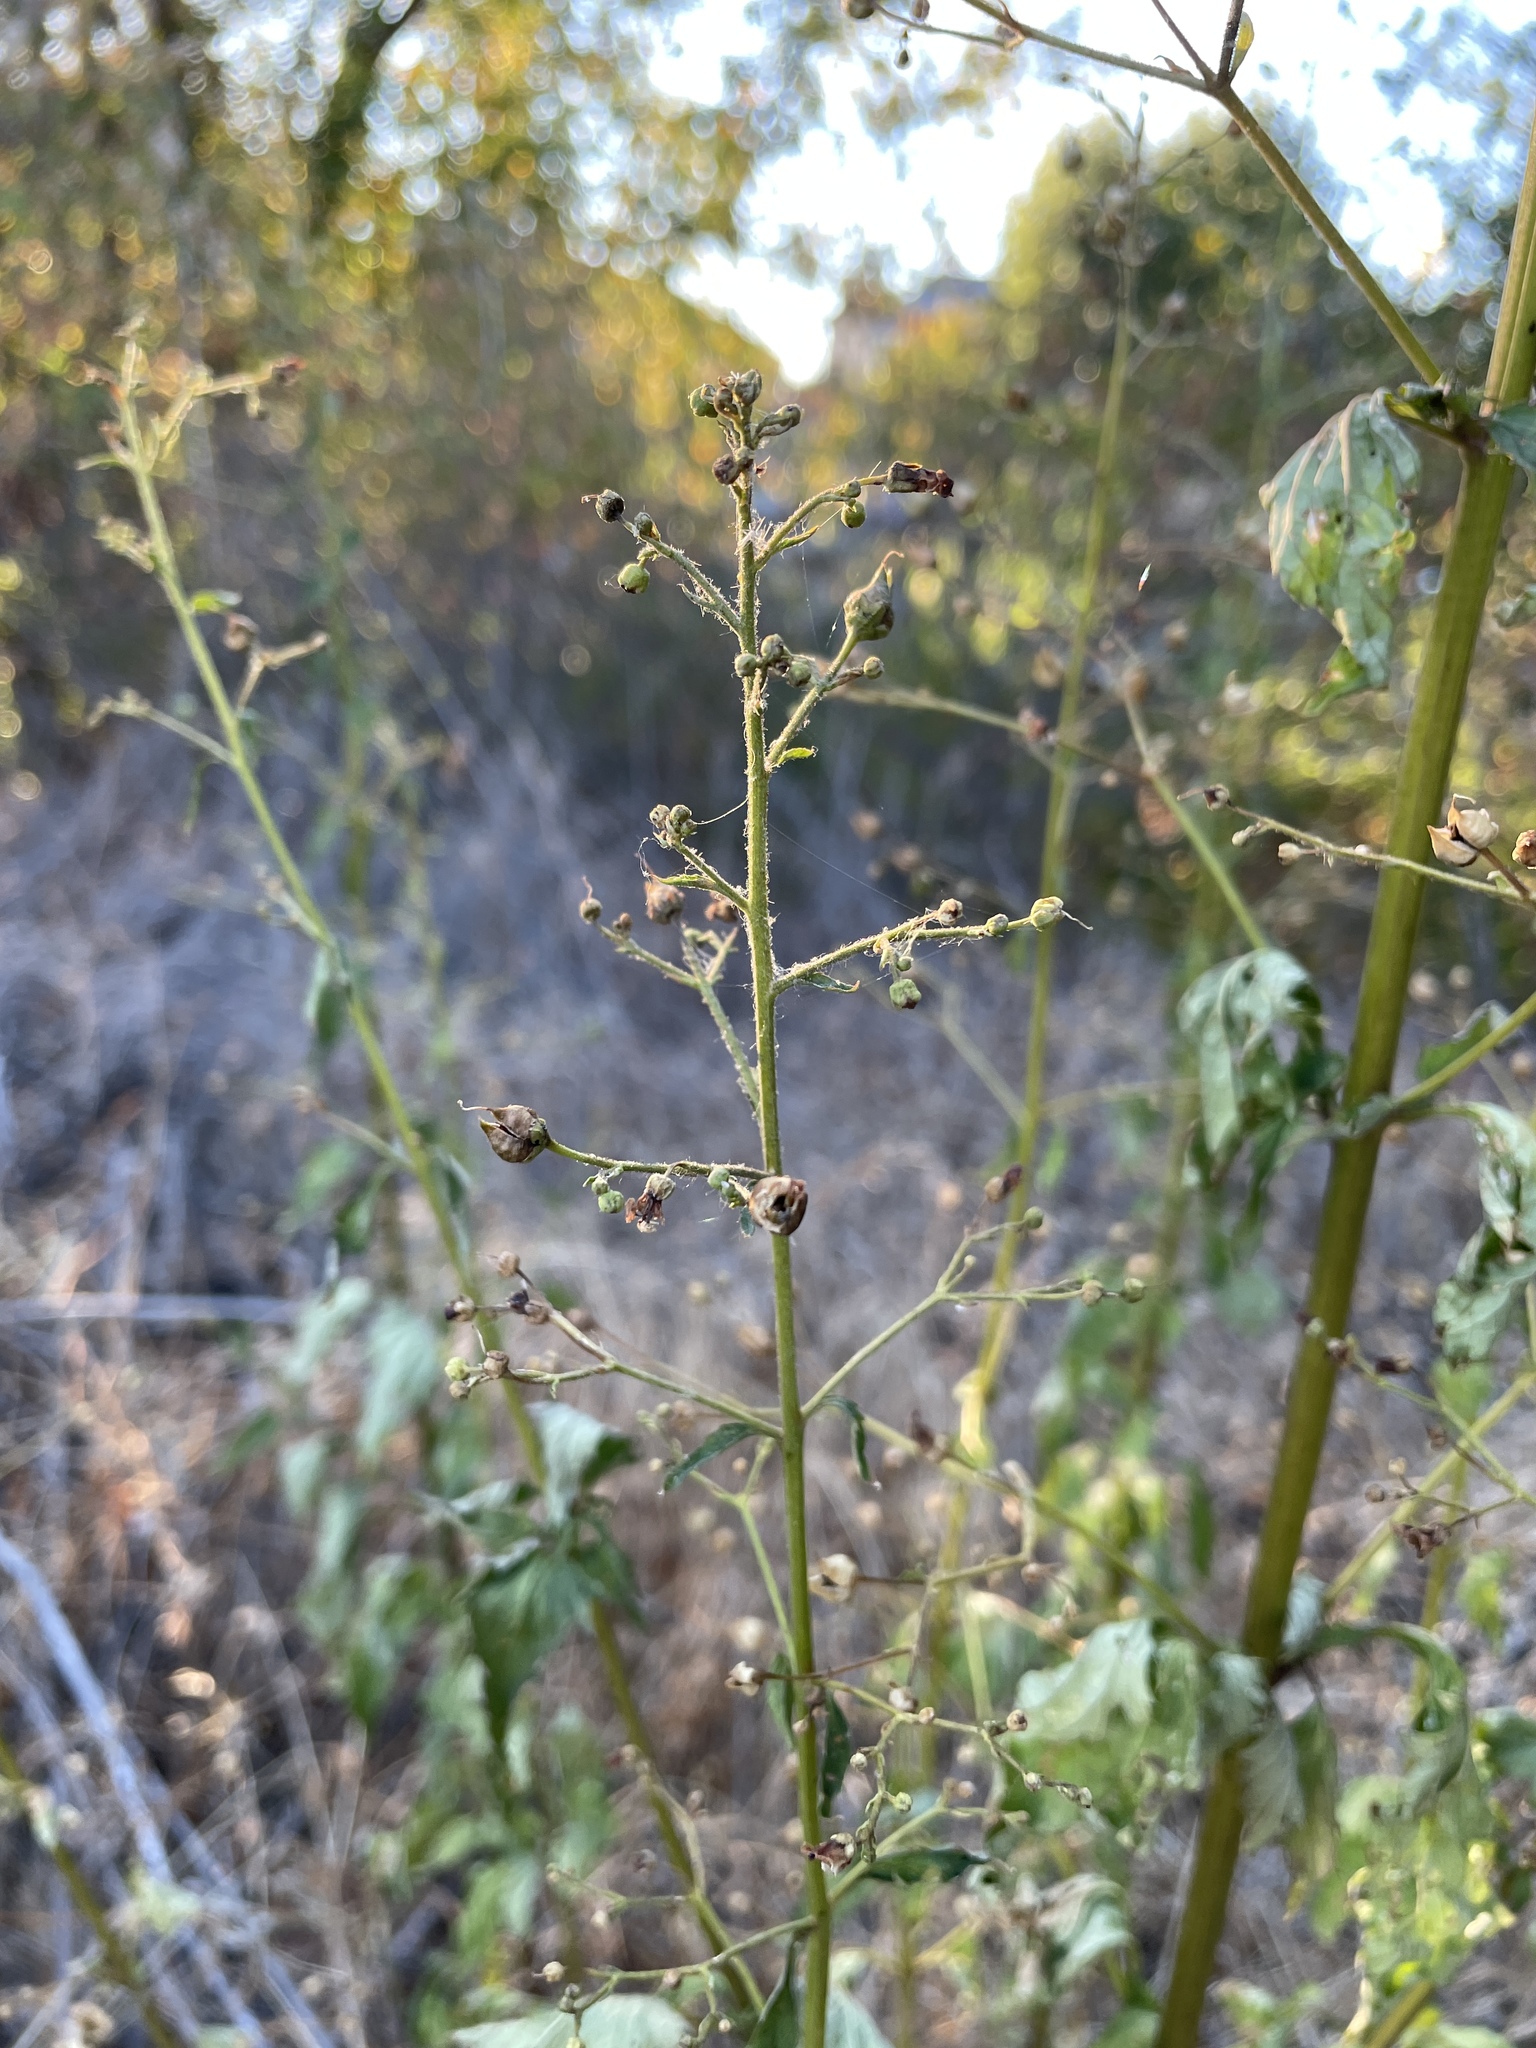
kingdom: Plantae
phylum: Tracheophyta
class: Magnoliopsida
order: Lamiales
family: Scrophulariaceae
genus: Scrophularia
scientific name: Scrophularia californica
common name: California figwort
